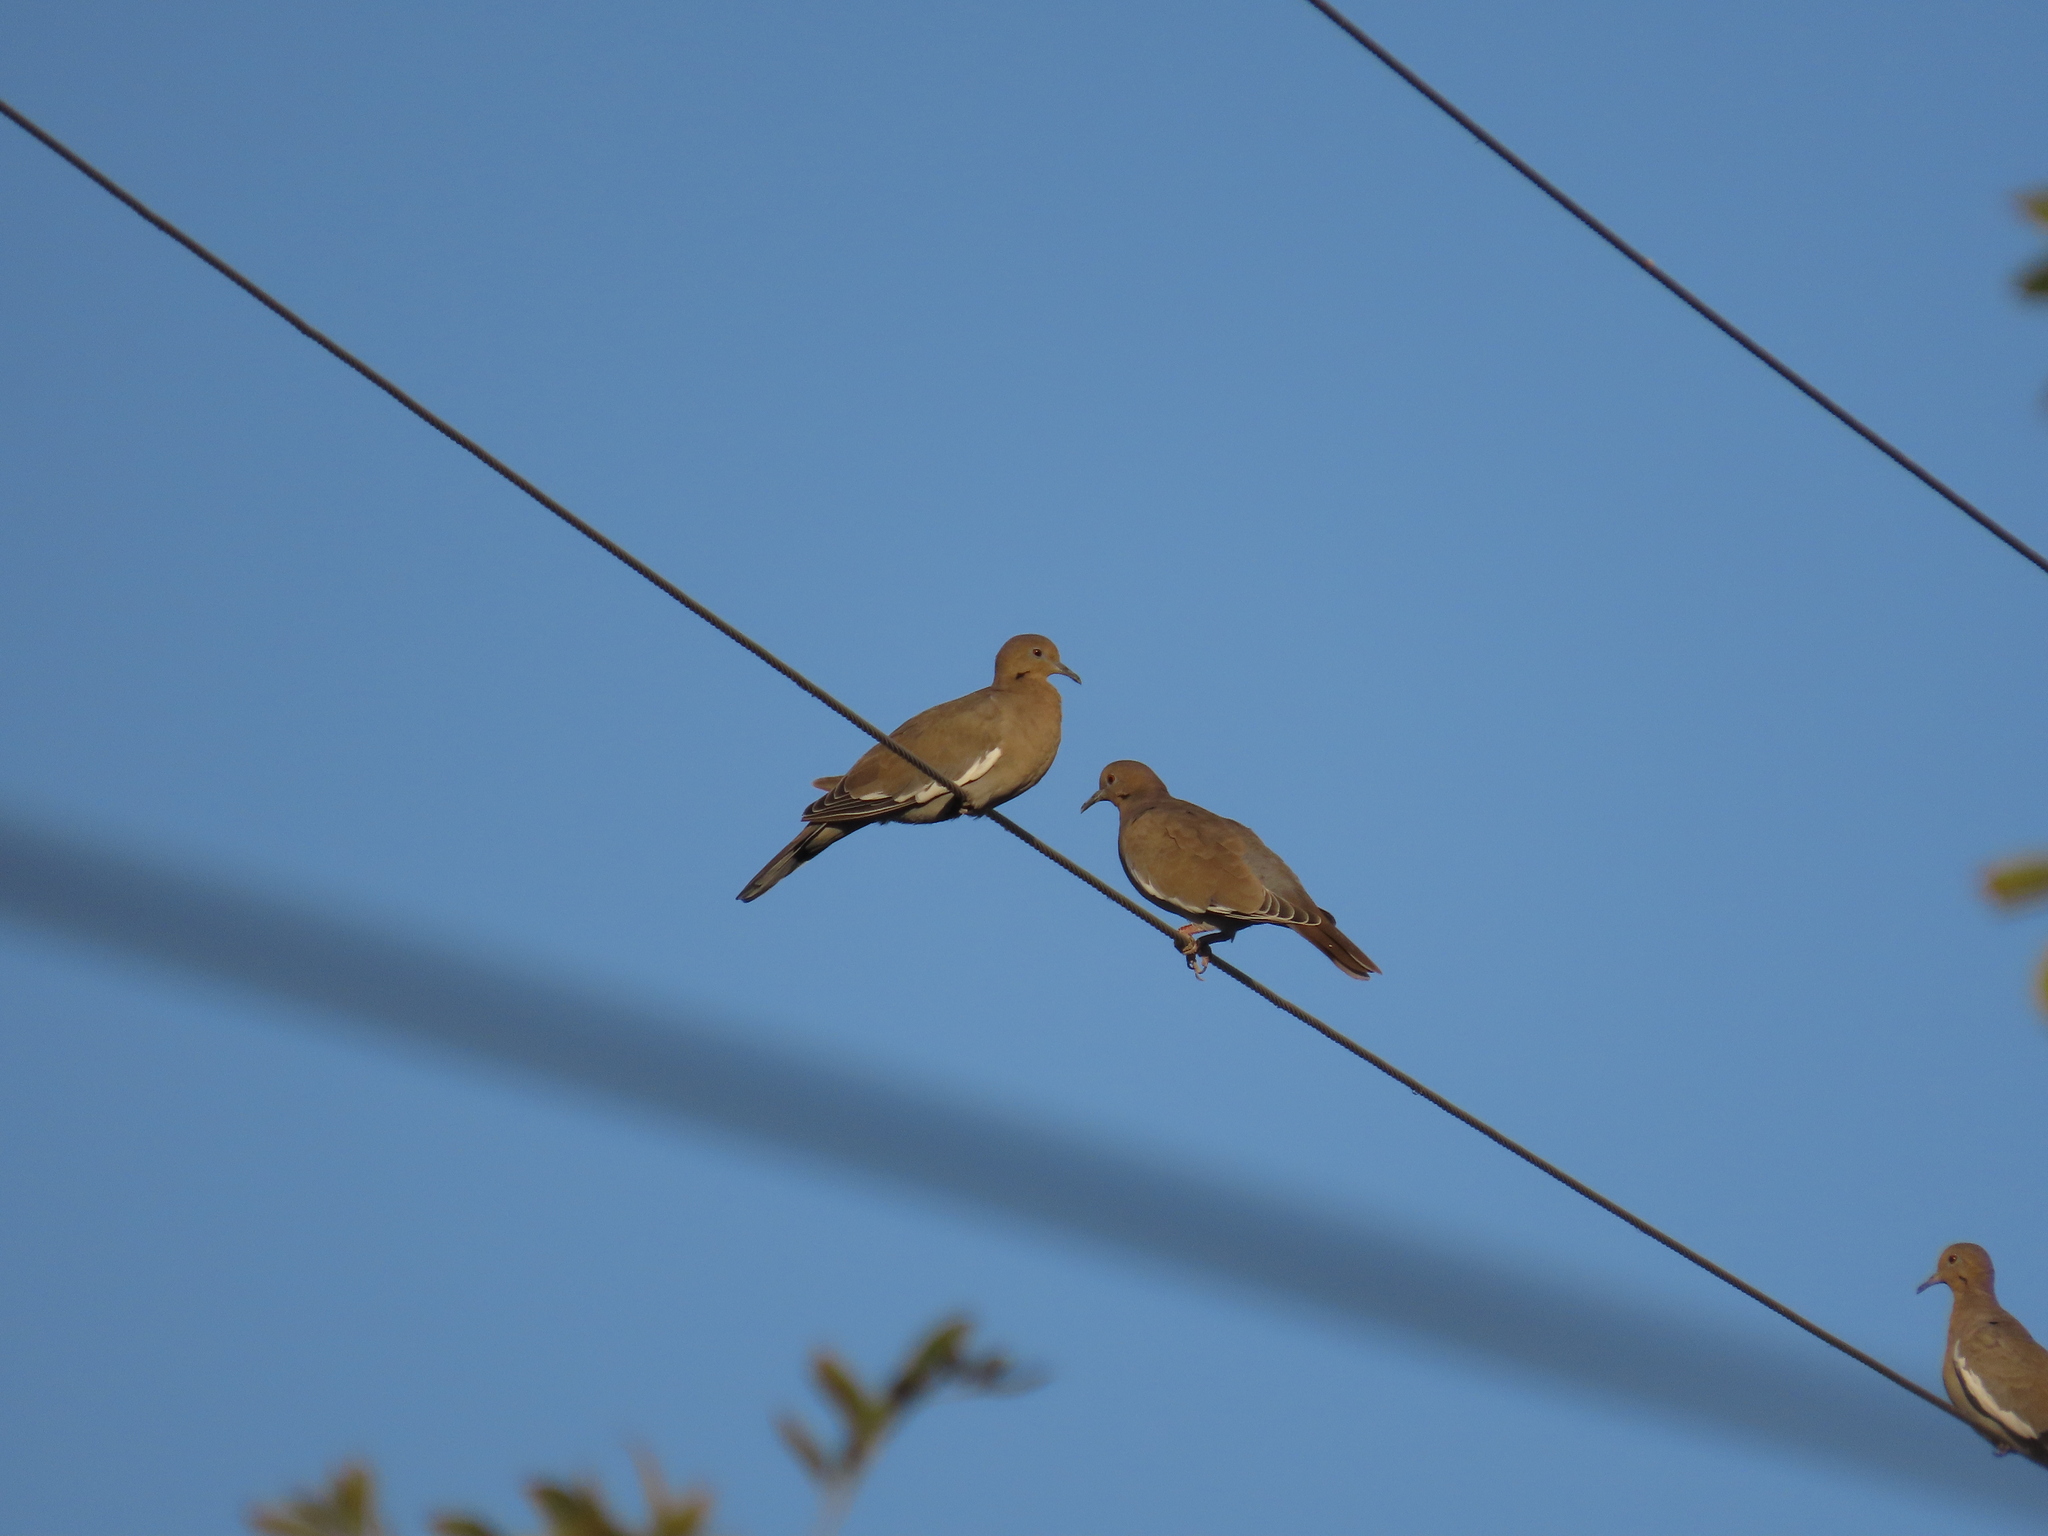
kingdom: Animalia
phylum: Chordata
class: Aves
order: Columbiformes
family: Columbidae
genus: Zenaida
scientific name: Zenaida asiatica
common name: White-winged dove
